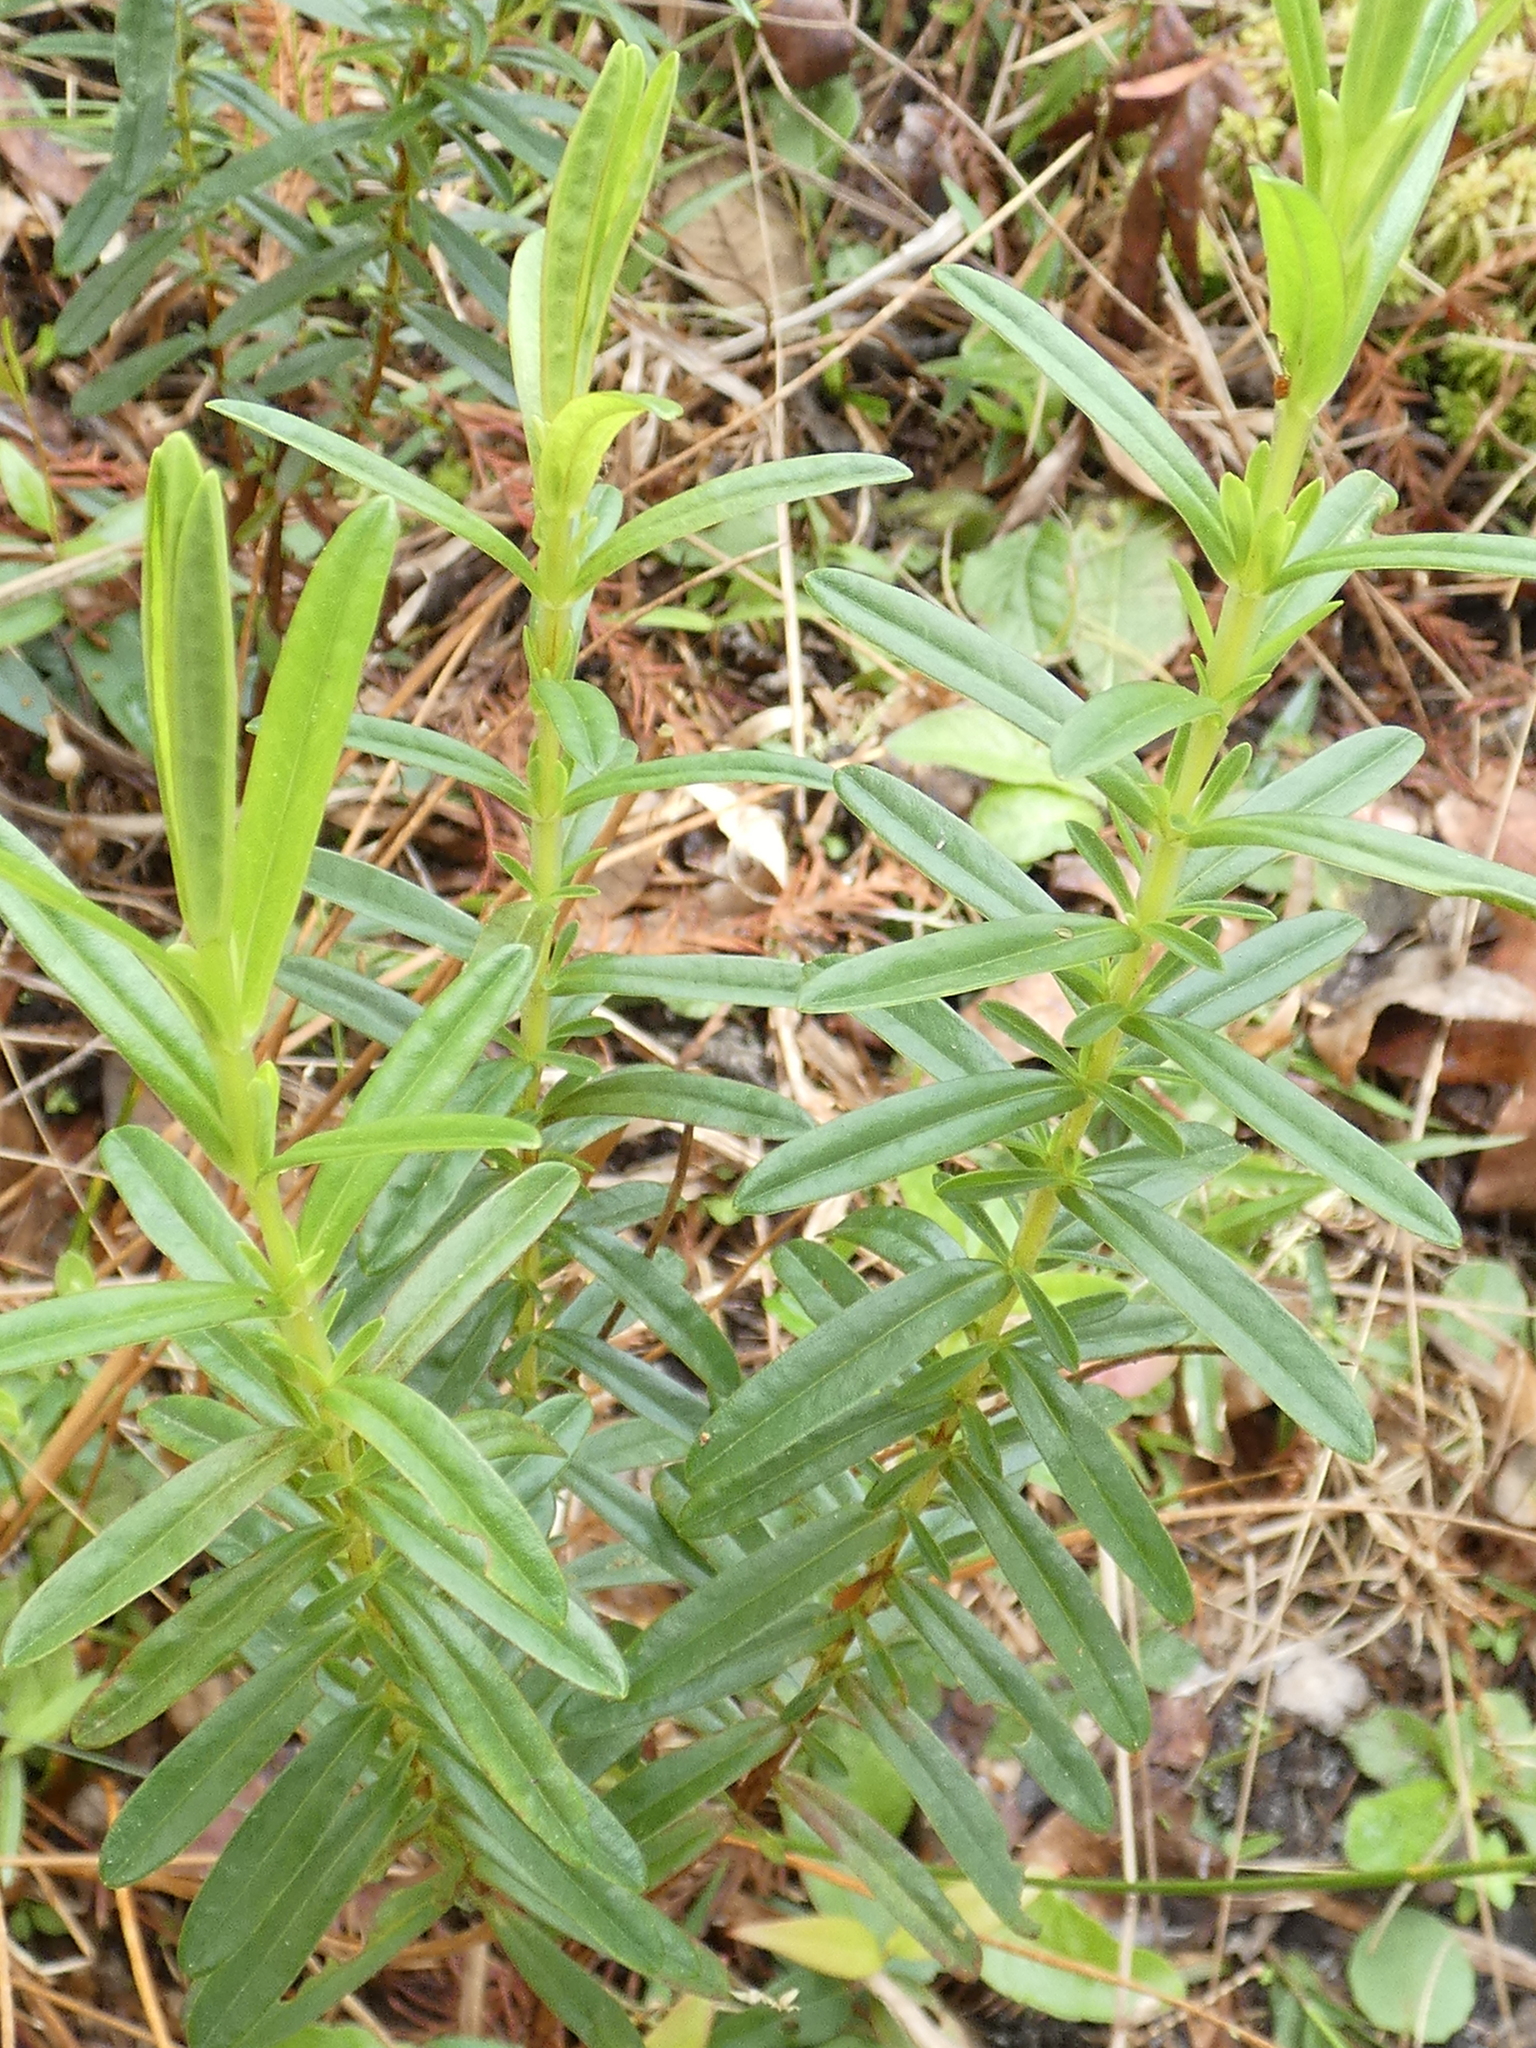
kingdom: Plantae
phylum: Tracheophyta
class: Magnoliopsida
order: Malpighiales
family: Hypericaceae
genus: Hypericum
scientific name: Hypericum cistifolium
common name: Round-pod st. john's-wort
